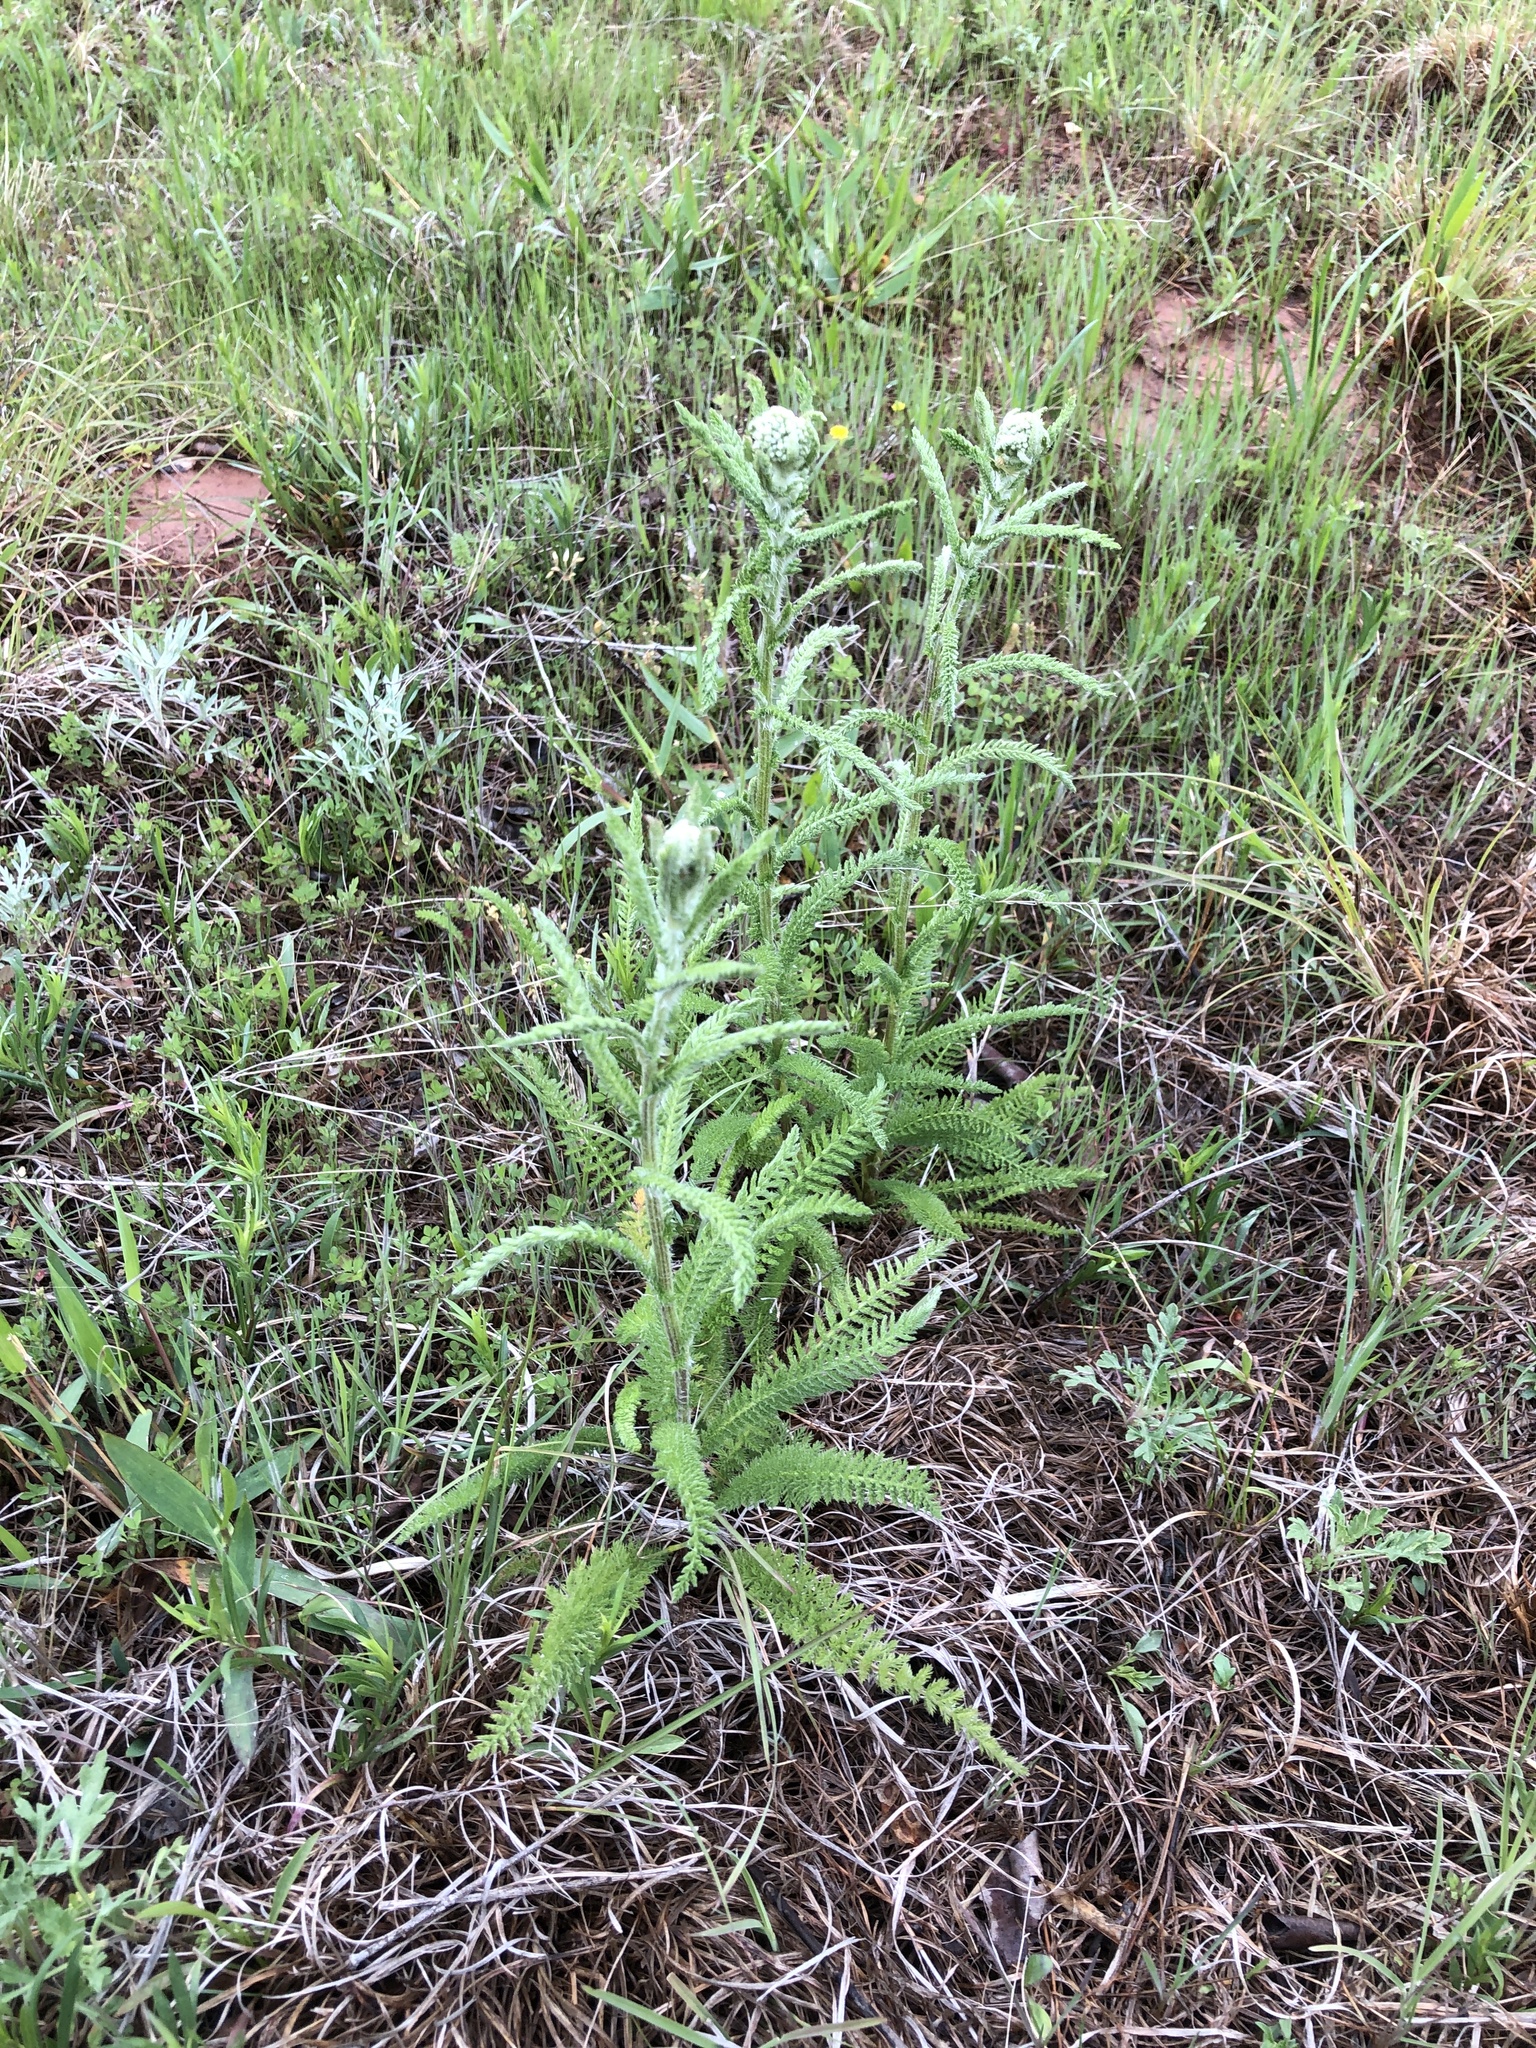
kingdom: Plantae
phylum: Tracheophyta
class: Magnoliopsida
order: Asterales
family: Asteraceae
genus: Achillea
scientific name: Achillea millefolium
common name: Yarrow
